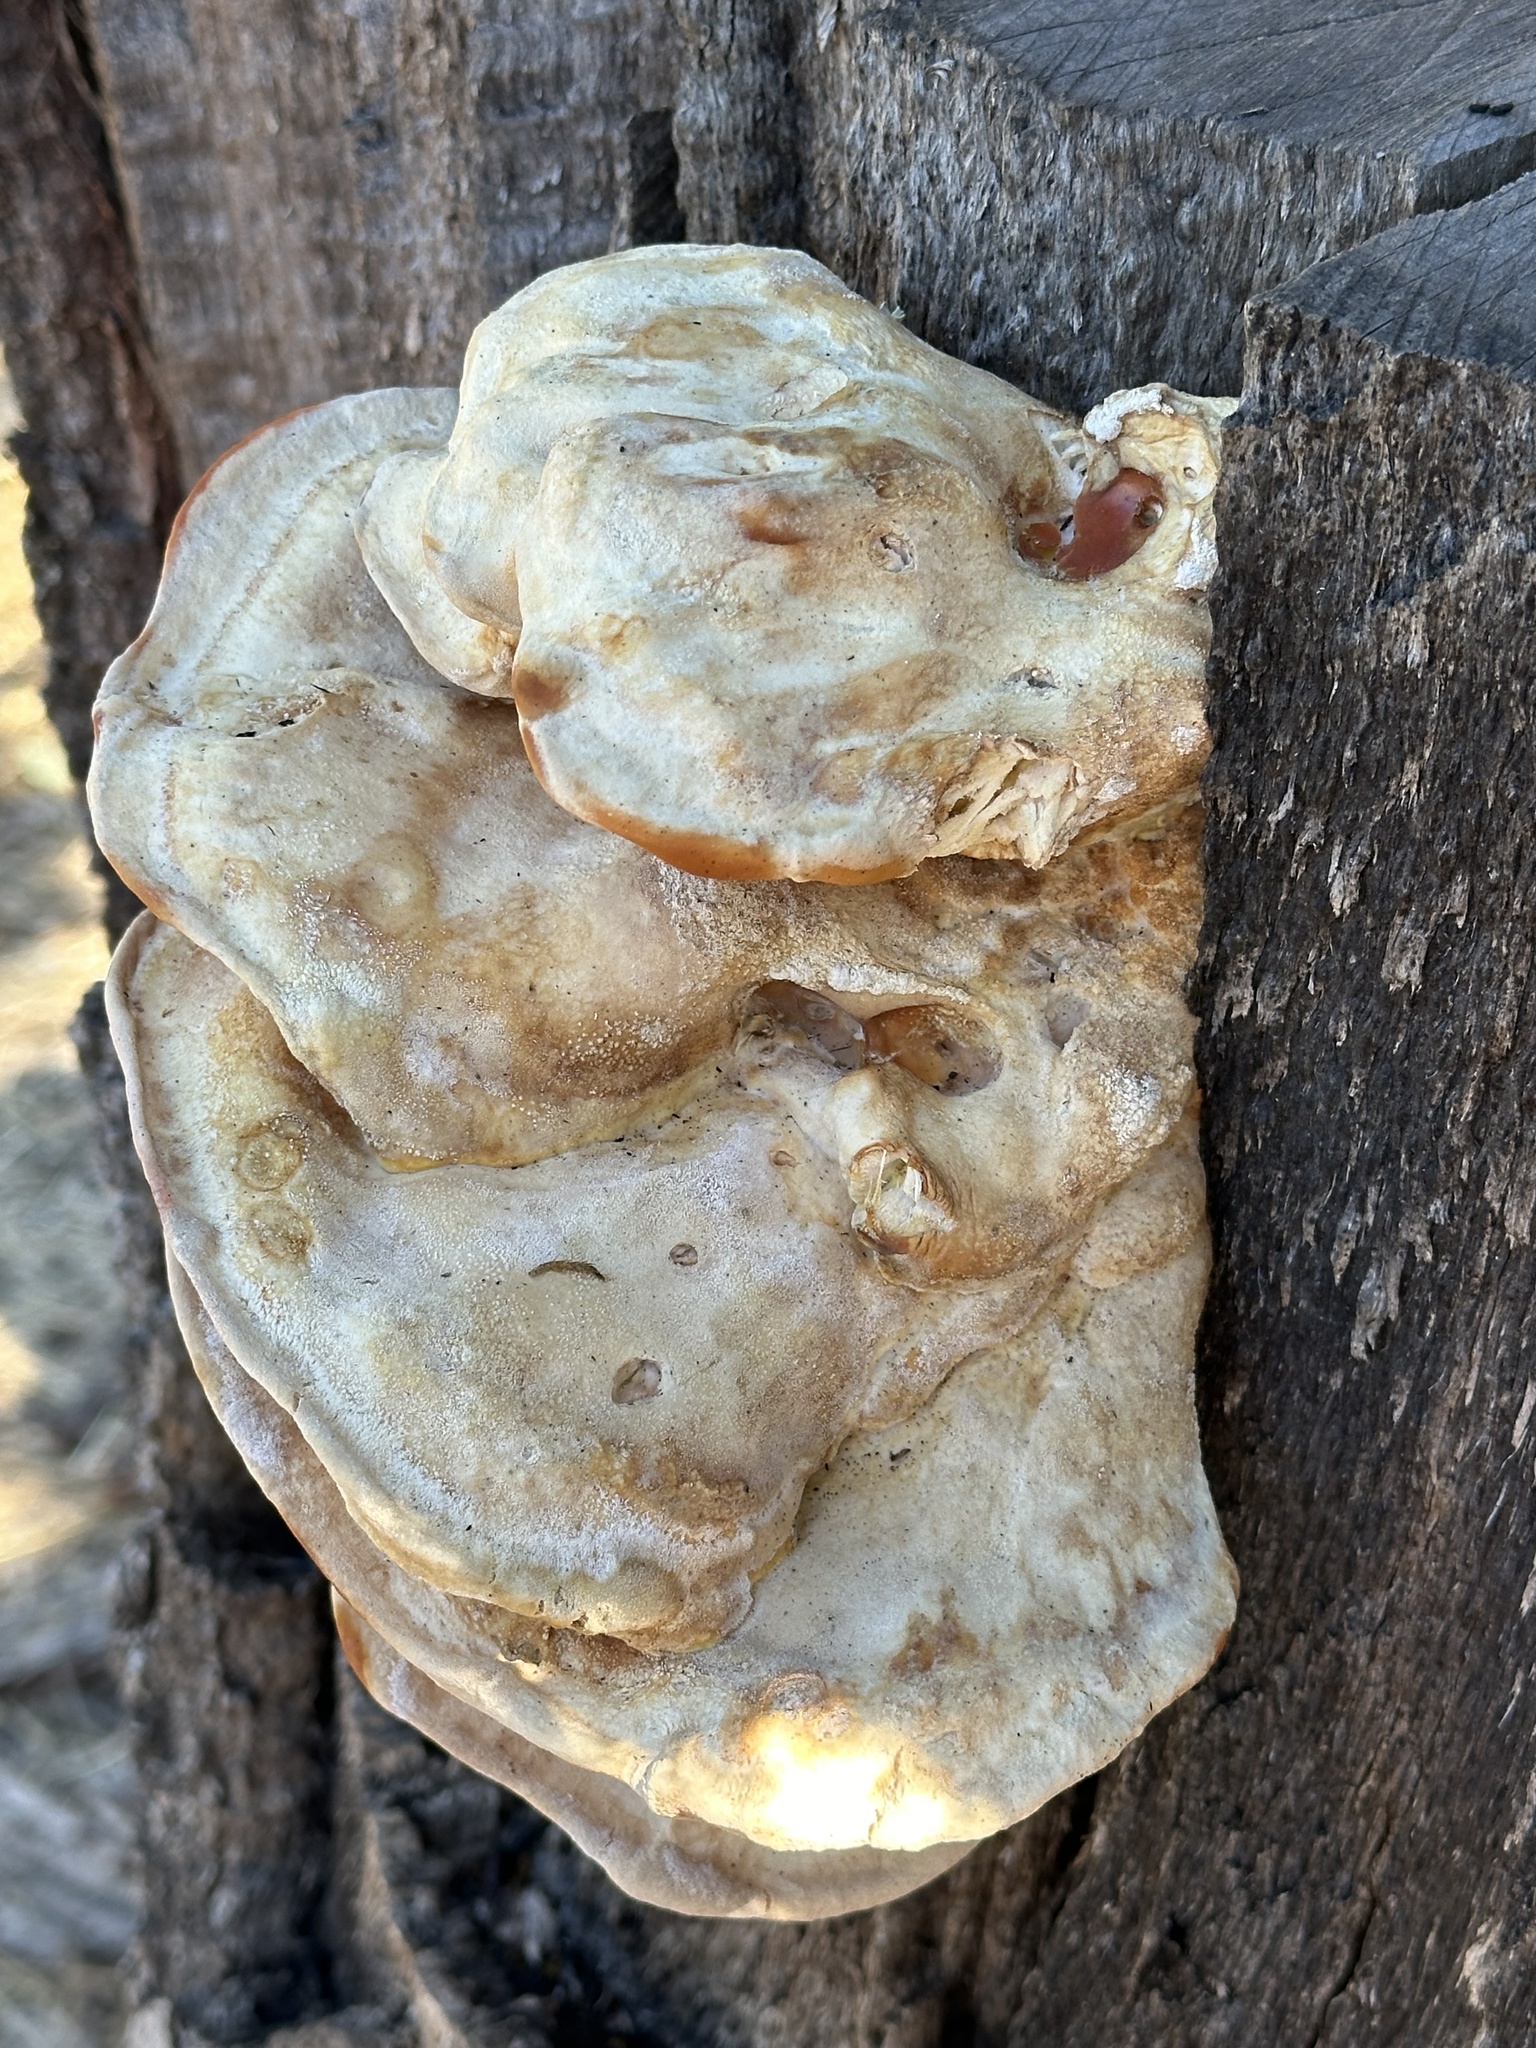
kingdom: Fungi
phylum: Basidiomycota
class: Agaricomycetes
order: Polyporales
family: Laetiporaceae
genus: Laetiporus
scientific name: Laetiporus gilbertsonii
